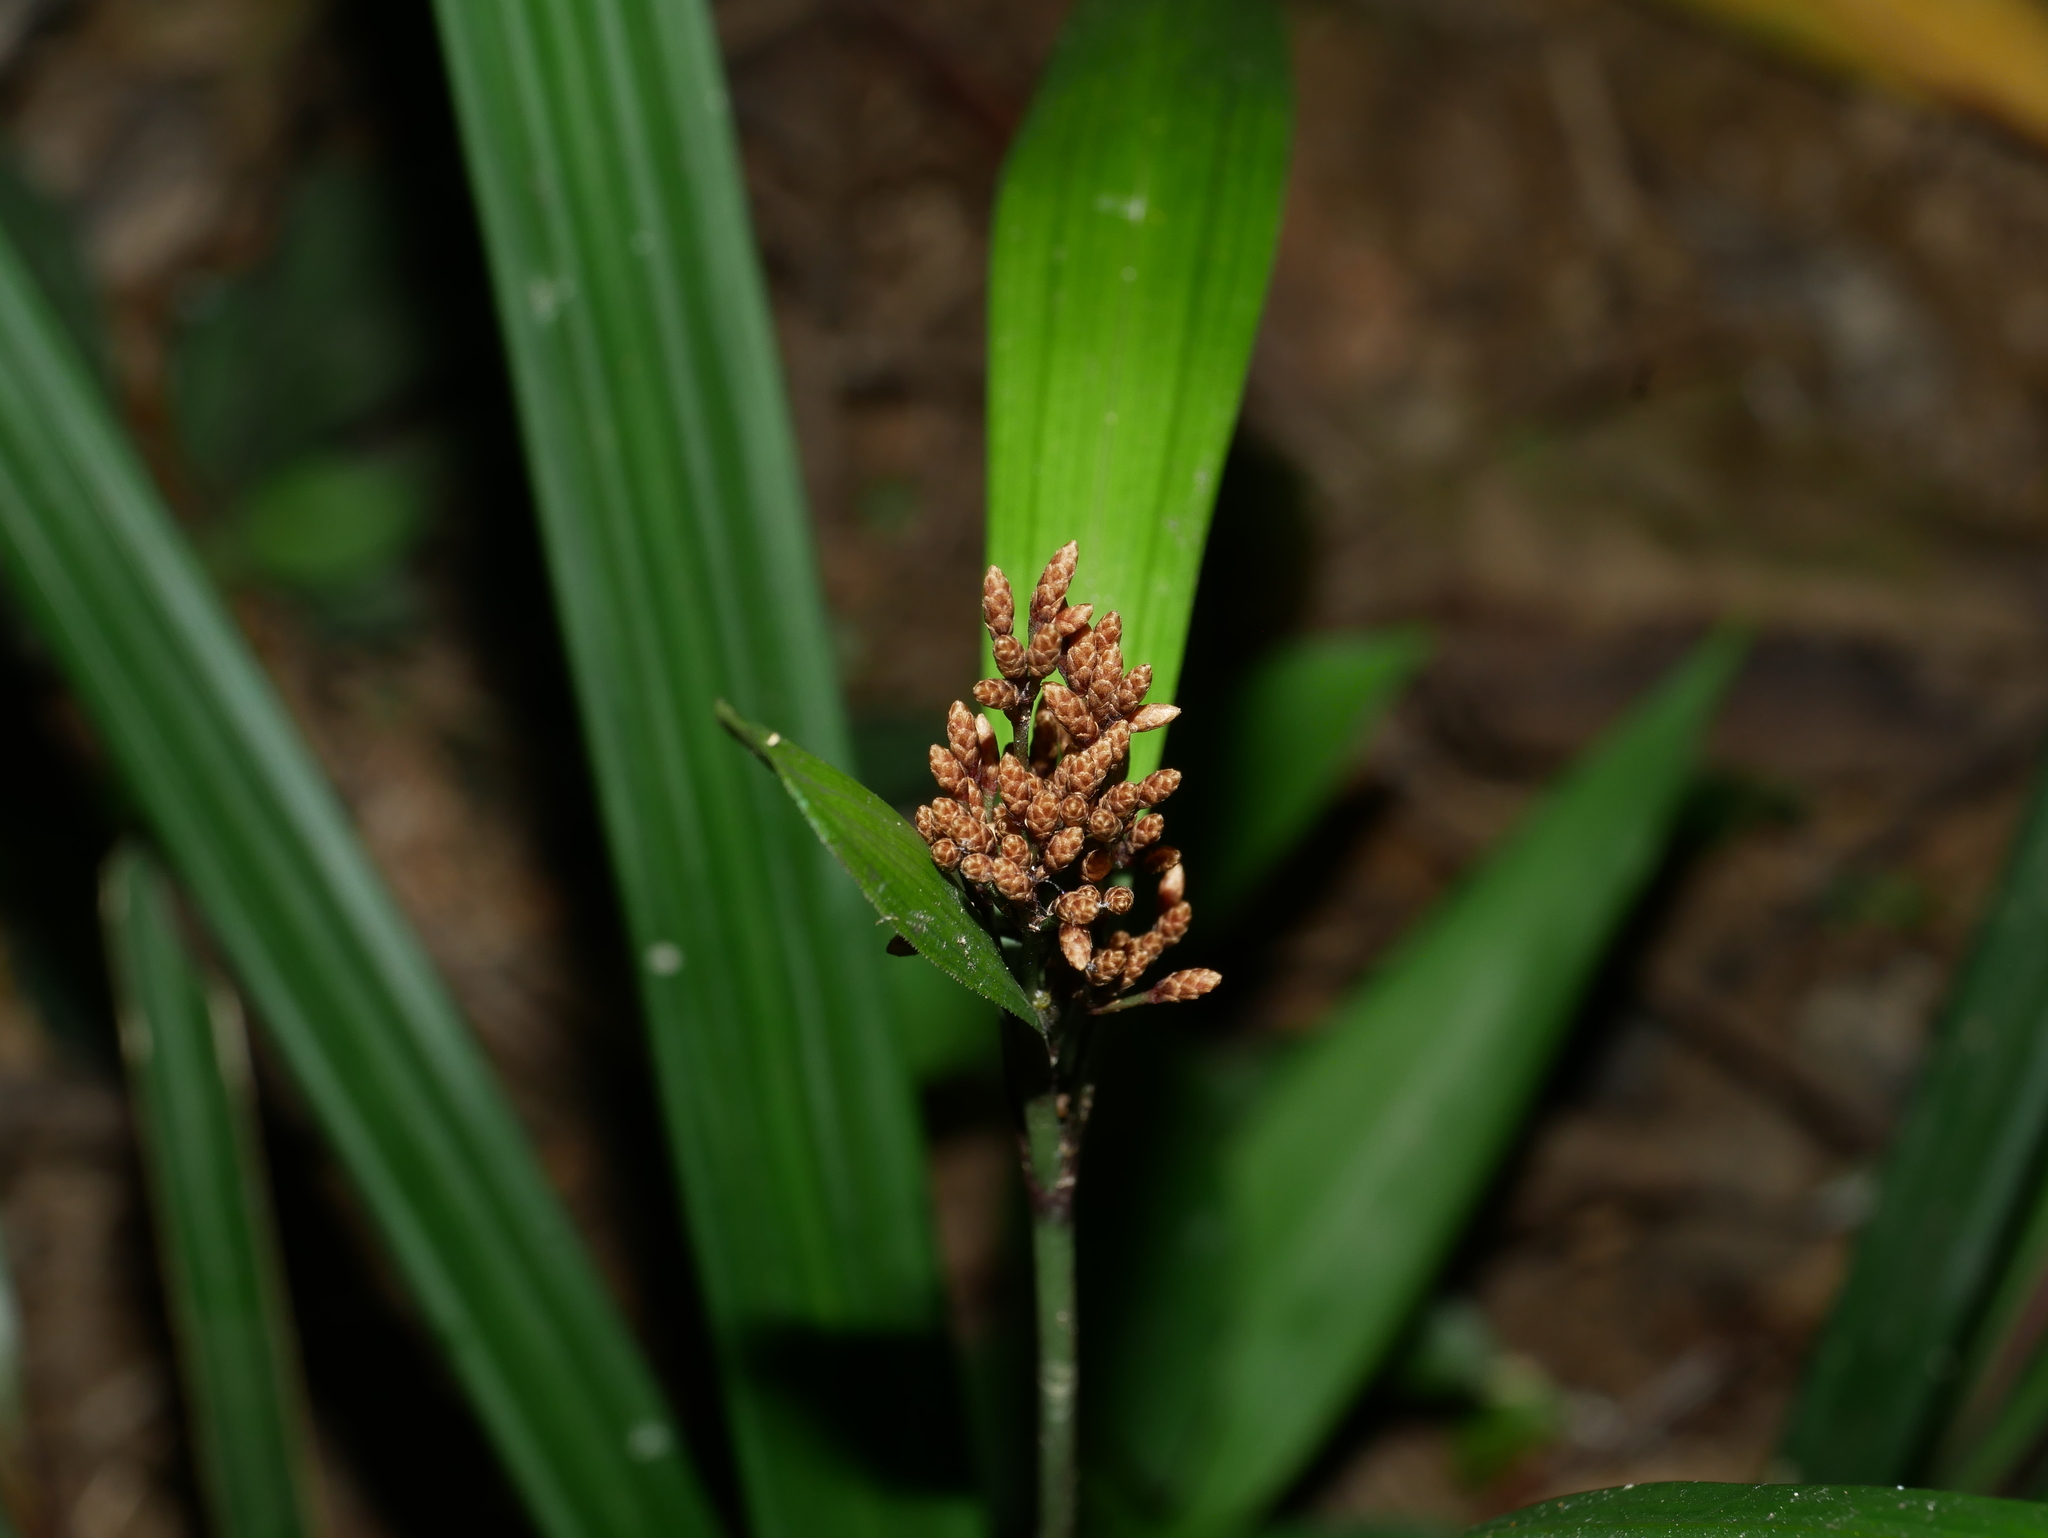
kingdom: Plantae
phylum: Tracheophyta
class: Liliopsida
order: Poales
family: Cyperaceae
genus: Hypolytrum
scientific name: Hypolytrum nemorum
